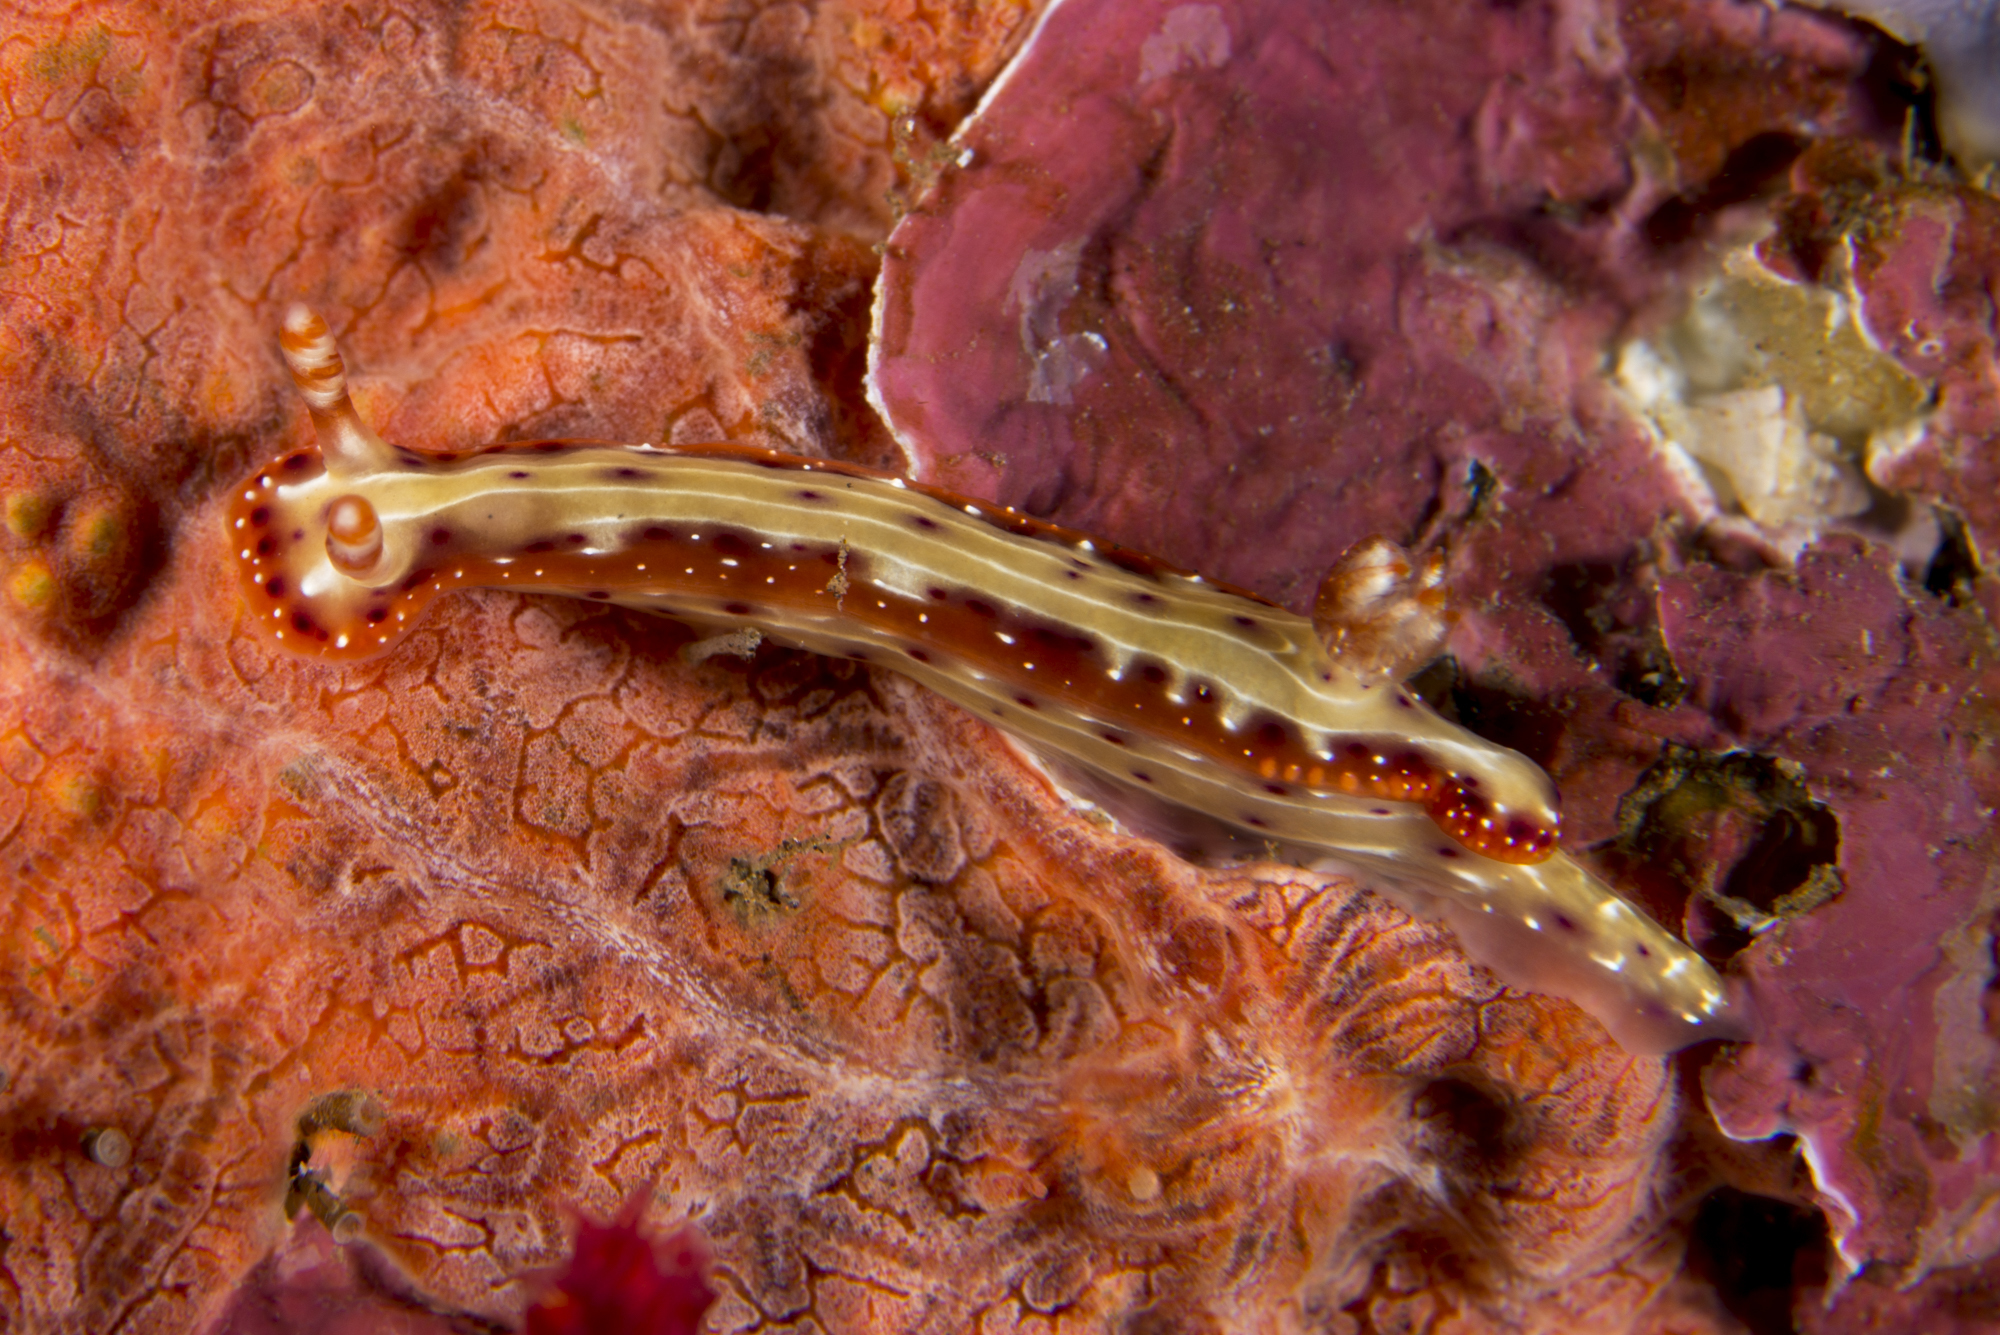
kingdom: Animalia
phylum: Mollusca
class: Gastropoda
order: Nudibranchia
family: Chromodorididae
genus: Hypselodoris
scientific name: Hypselodoris decorata
